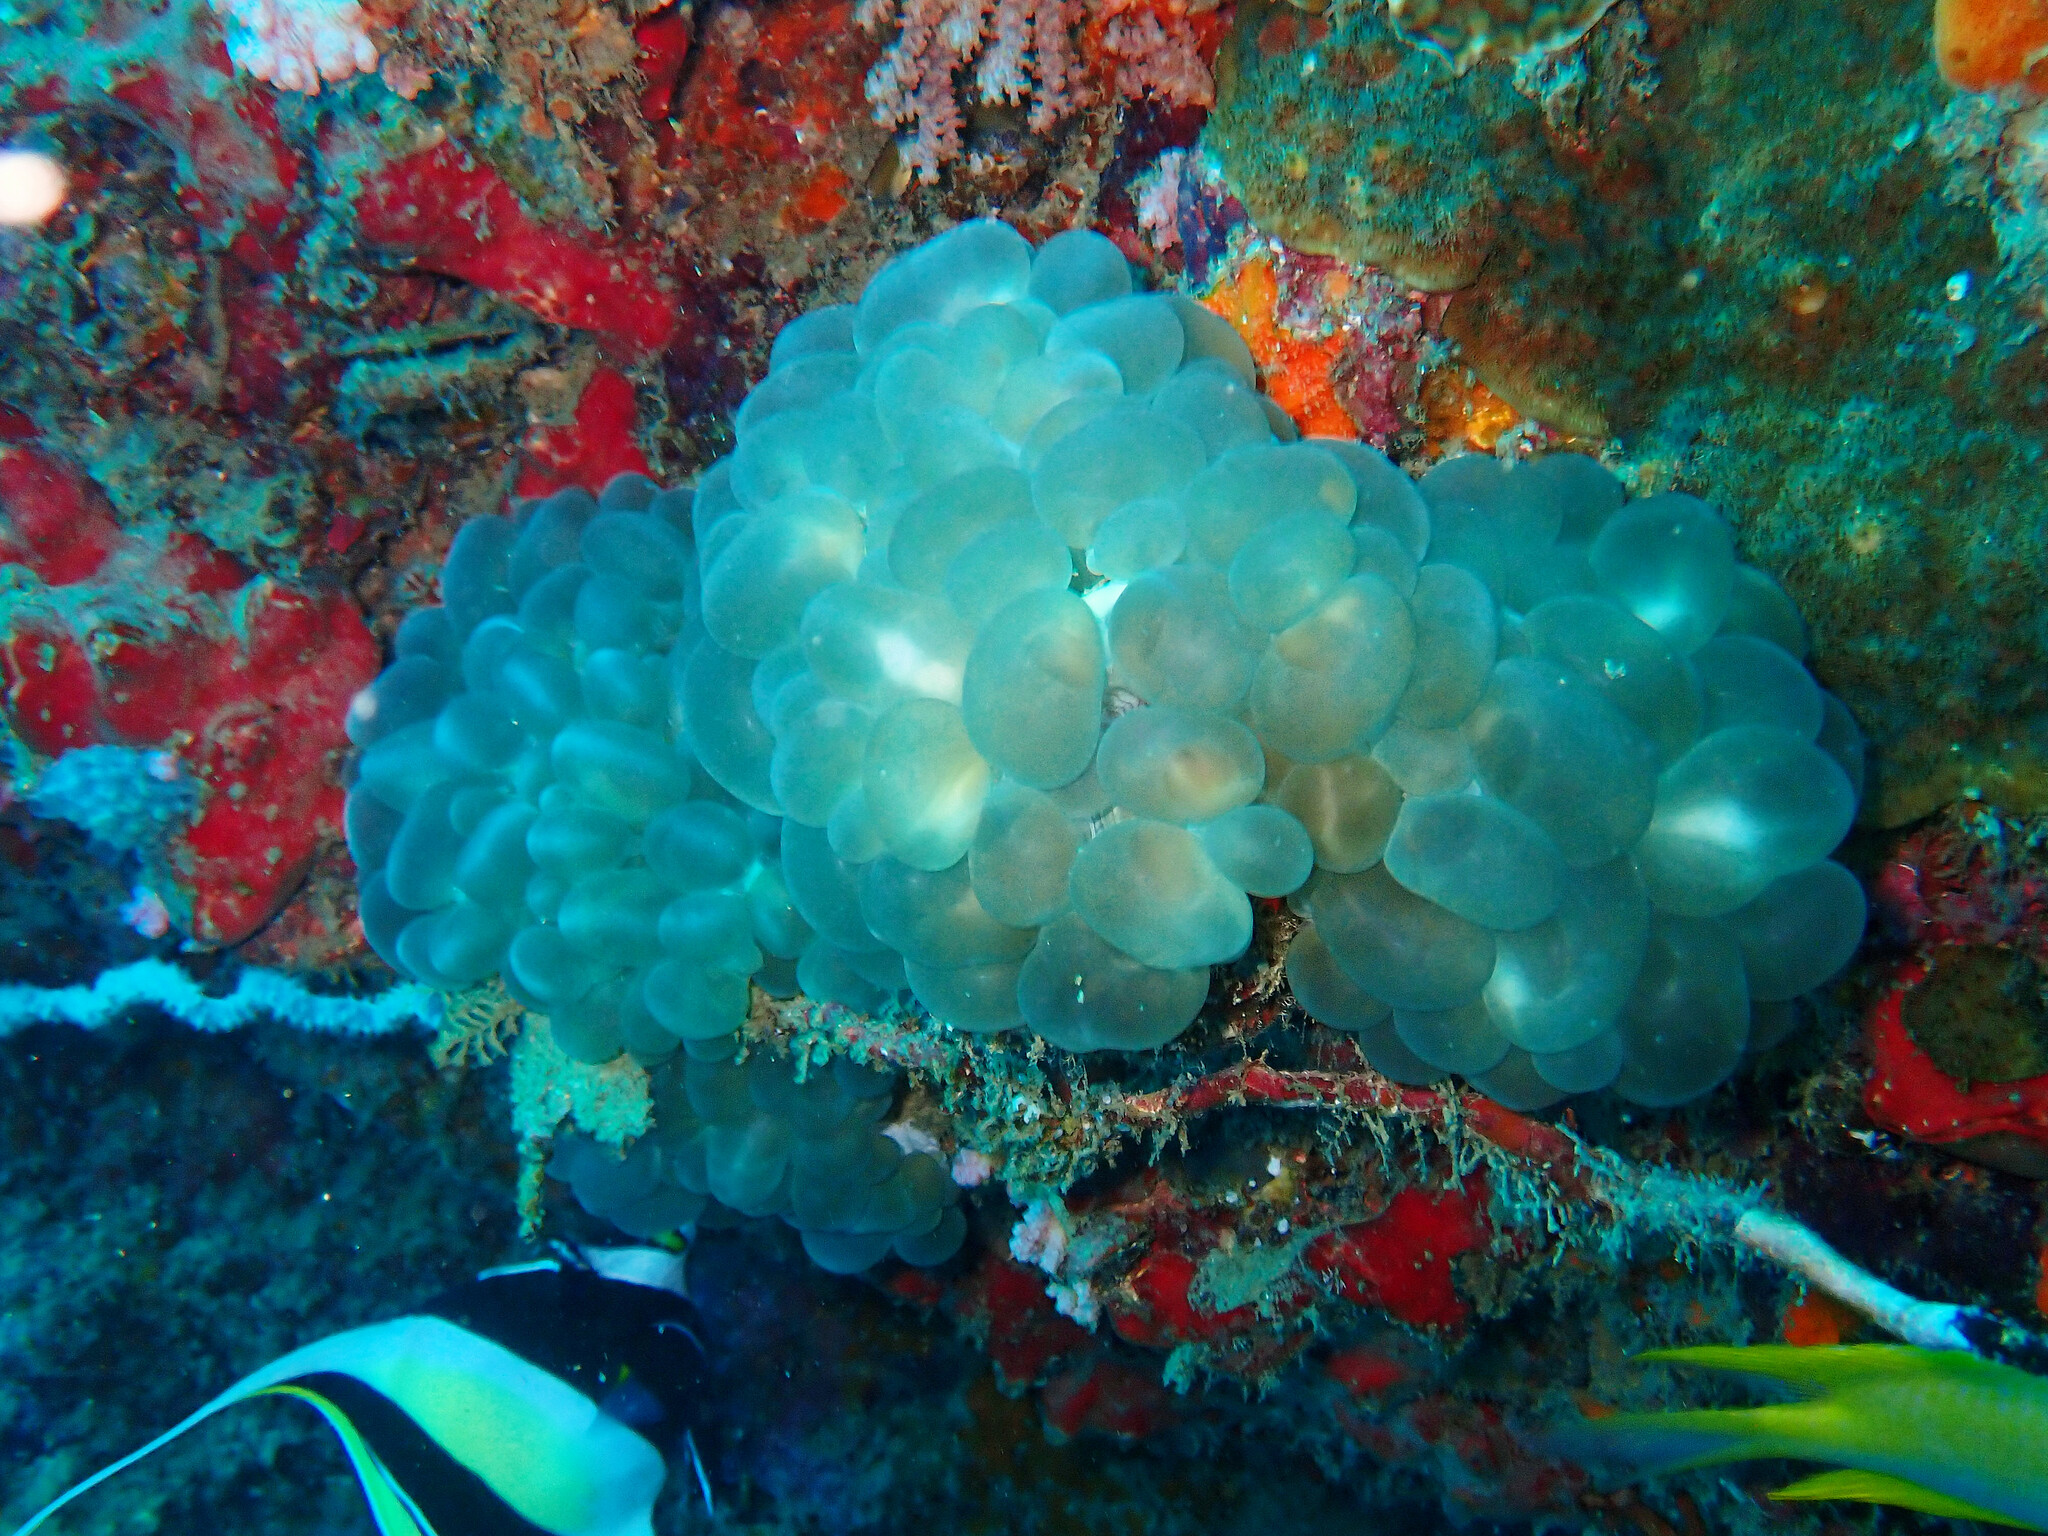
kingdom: Animalia
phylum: Cnidaria
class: Anthozoa
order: Scleractinia
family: Plerogyridae
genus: Plerogyra
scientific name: Plerogyra sinuosa
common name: Bubble coral
